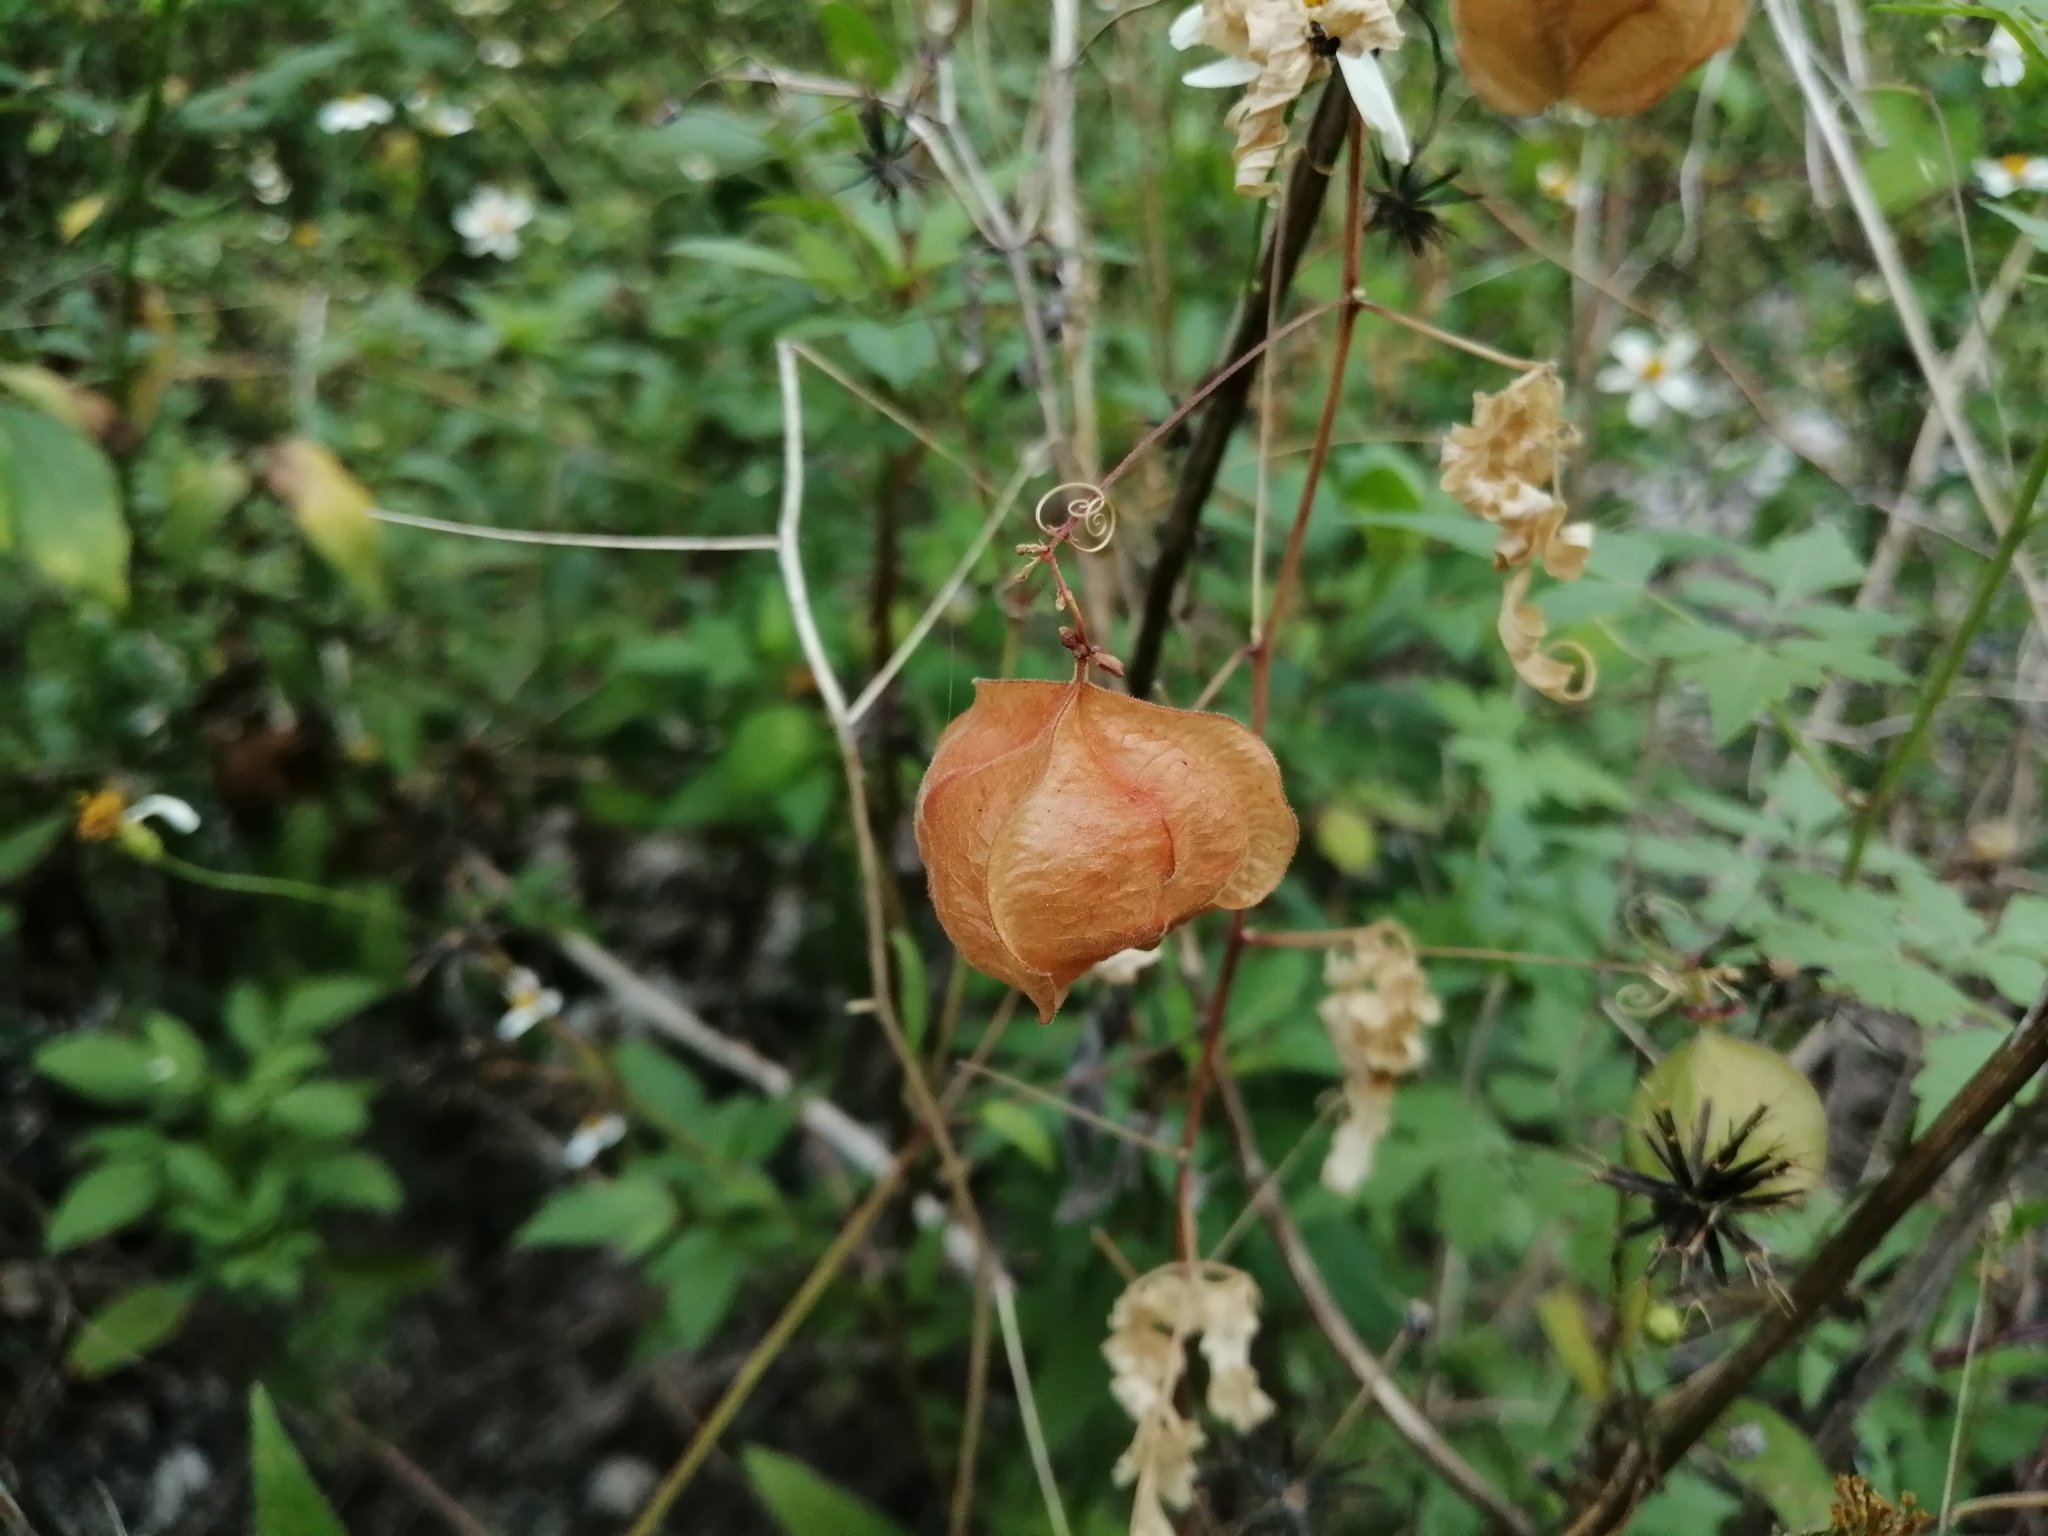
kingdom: Plantae
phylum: Tracheophyta
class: Magnoliopsida
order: Sapindales
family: Sapindaceae
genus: Cardiospermum
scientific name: Cardiospermum halicacabum
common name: Balloon vine
